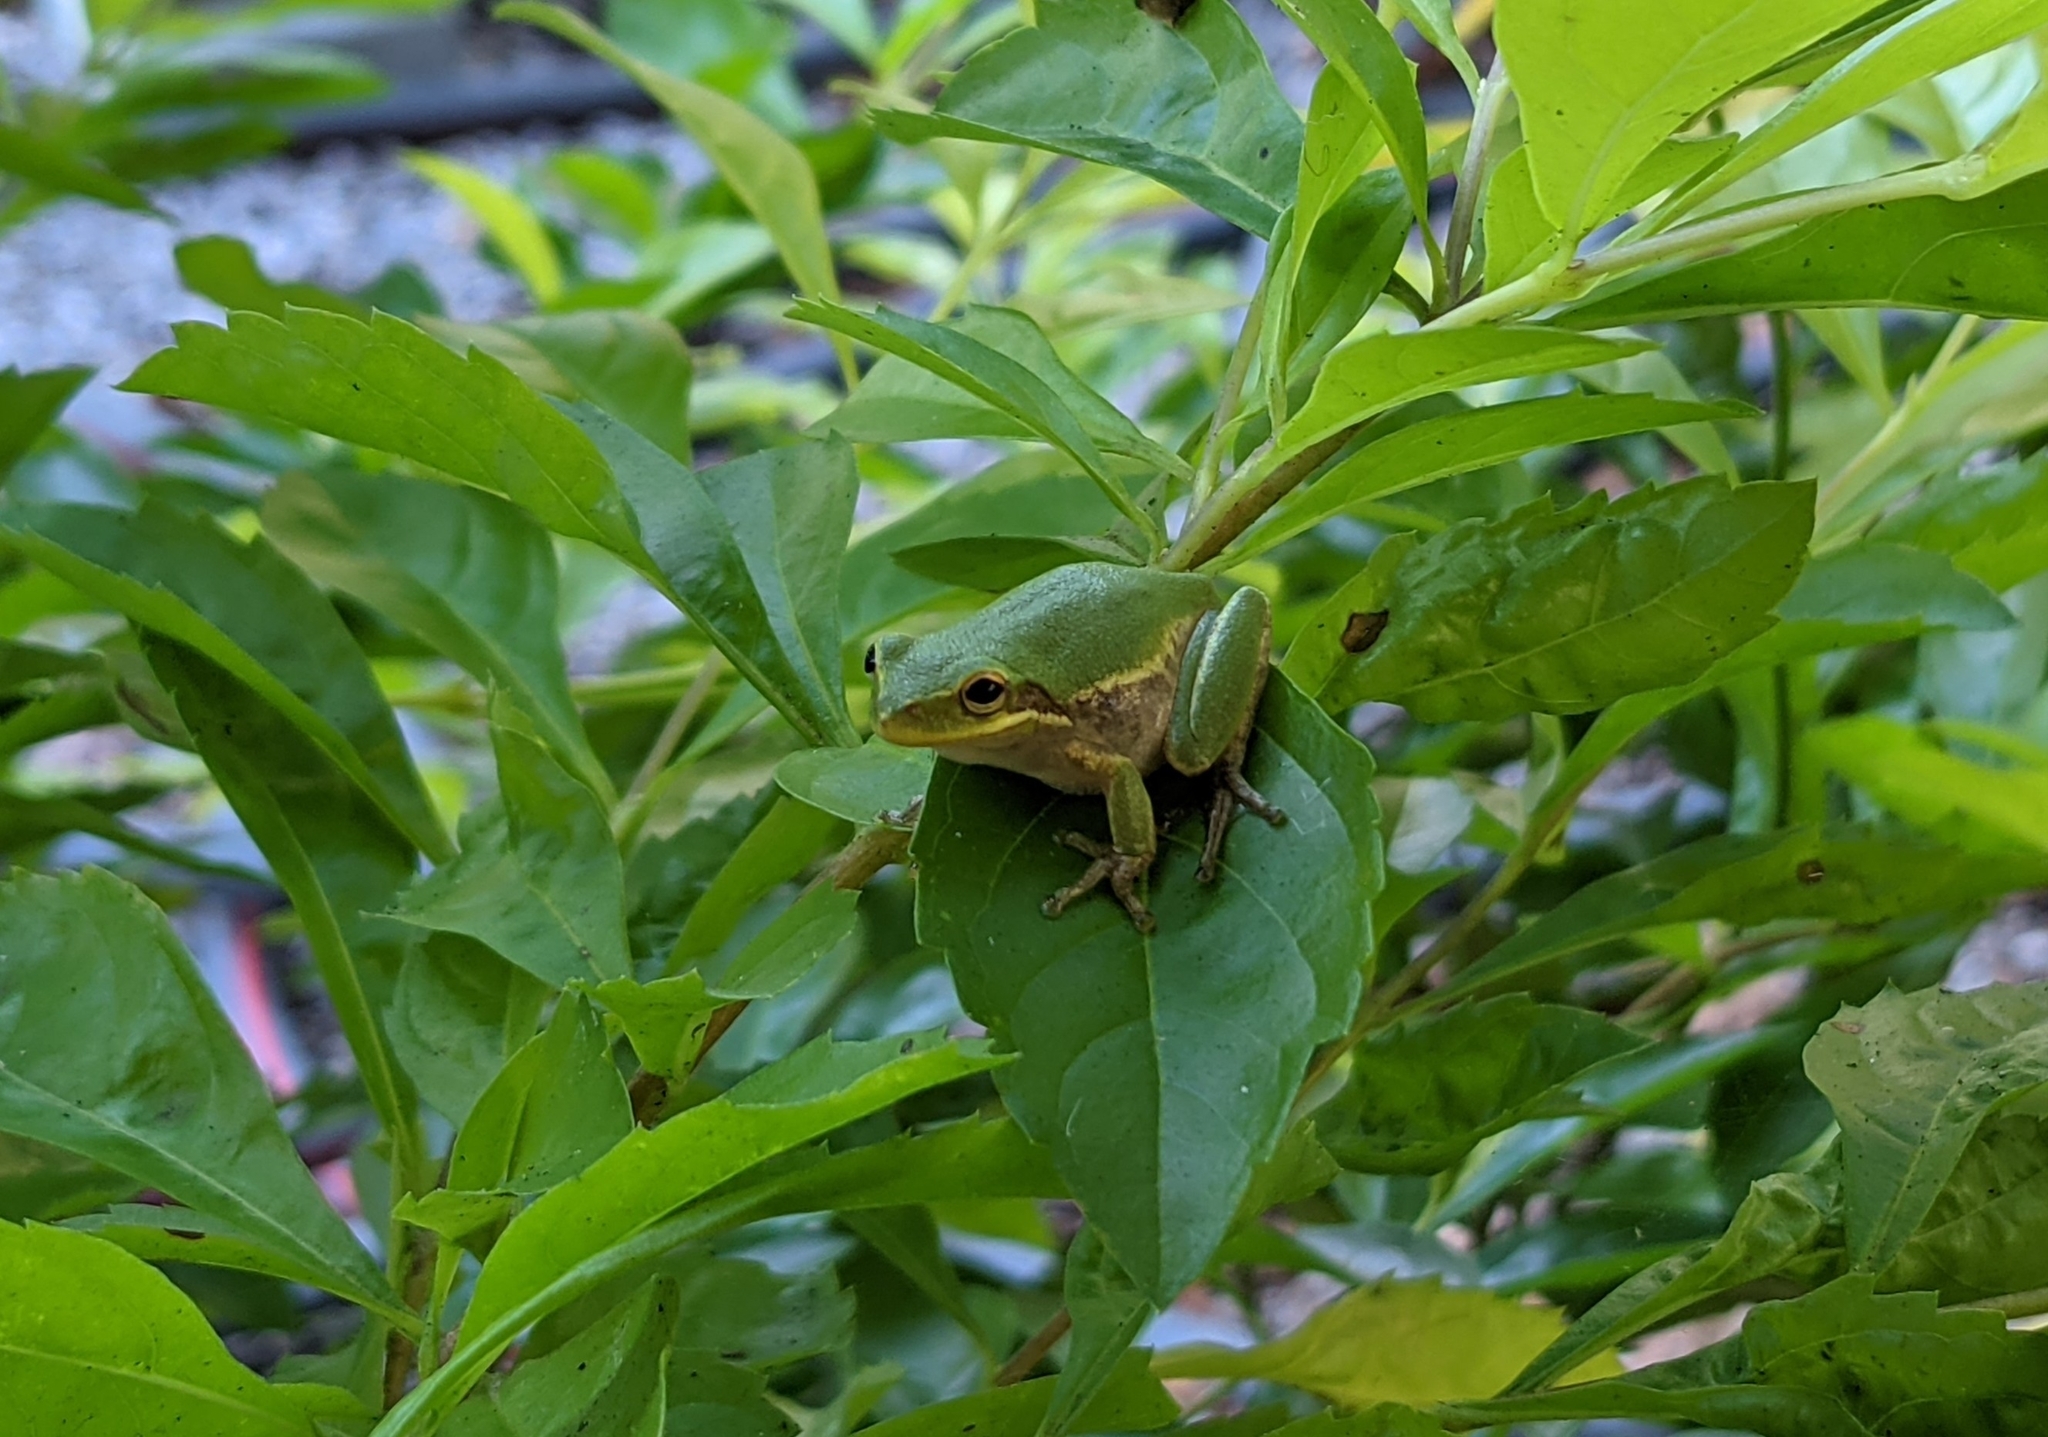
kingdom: Animalia
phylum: Chordata
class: Amphibia
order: Anura
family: Hylidae
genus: Dryophytes
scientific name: Dryophytes squirellus
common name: Squirrel treefrog
